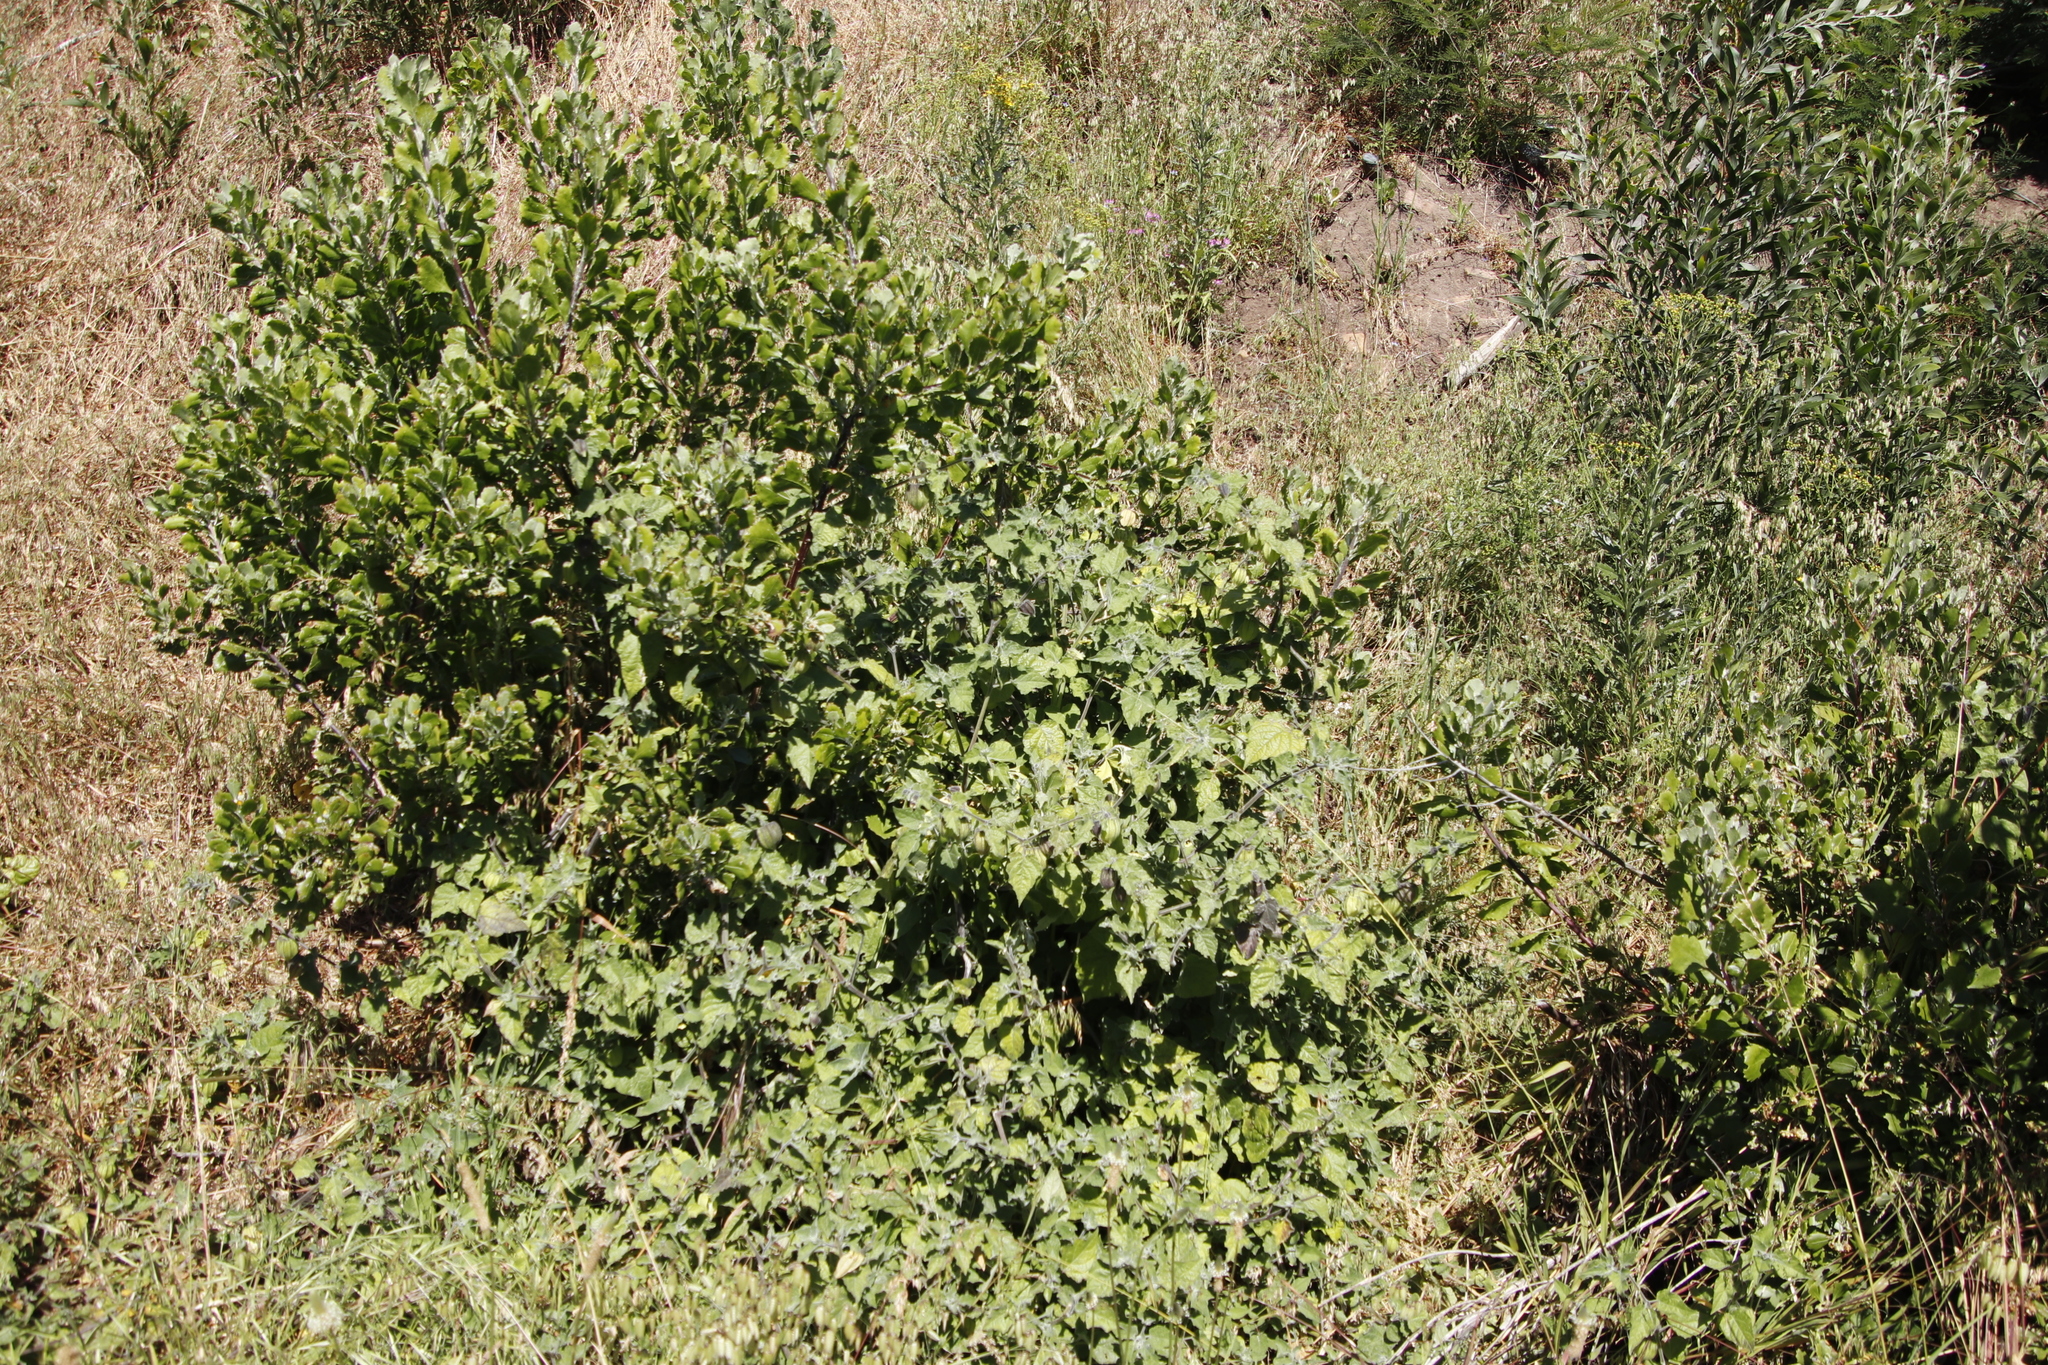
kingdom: Plantae
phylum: Tracheophyta
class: Magnoliopsida
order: Solanales
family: Solanaceae
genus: Physalis
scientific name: Physalis peruviana
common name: Cape-gooseberry
